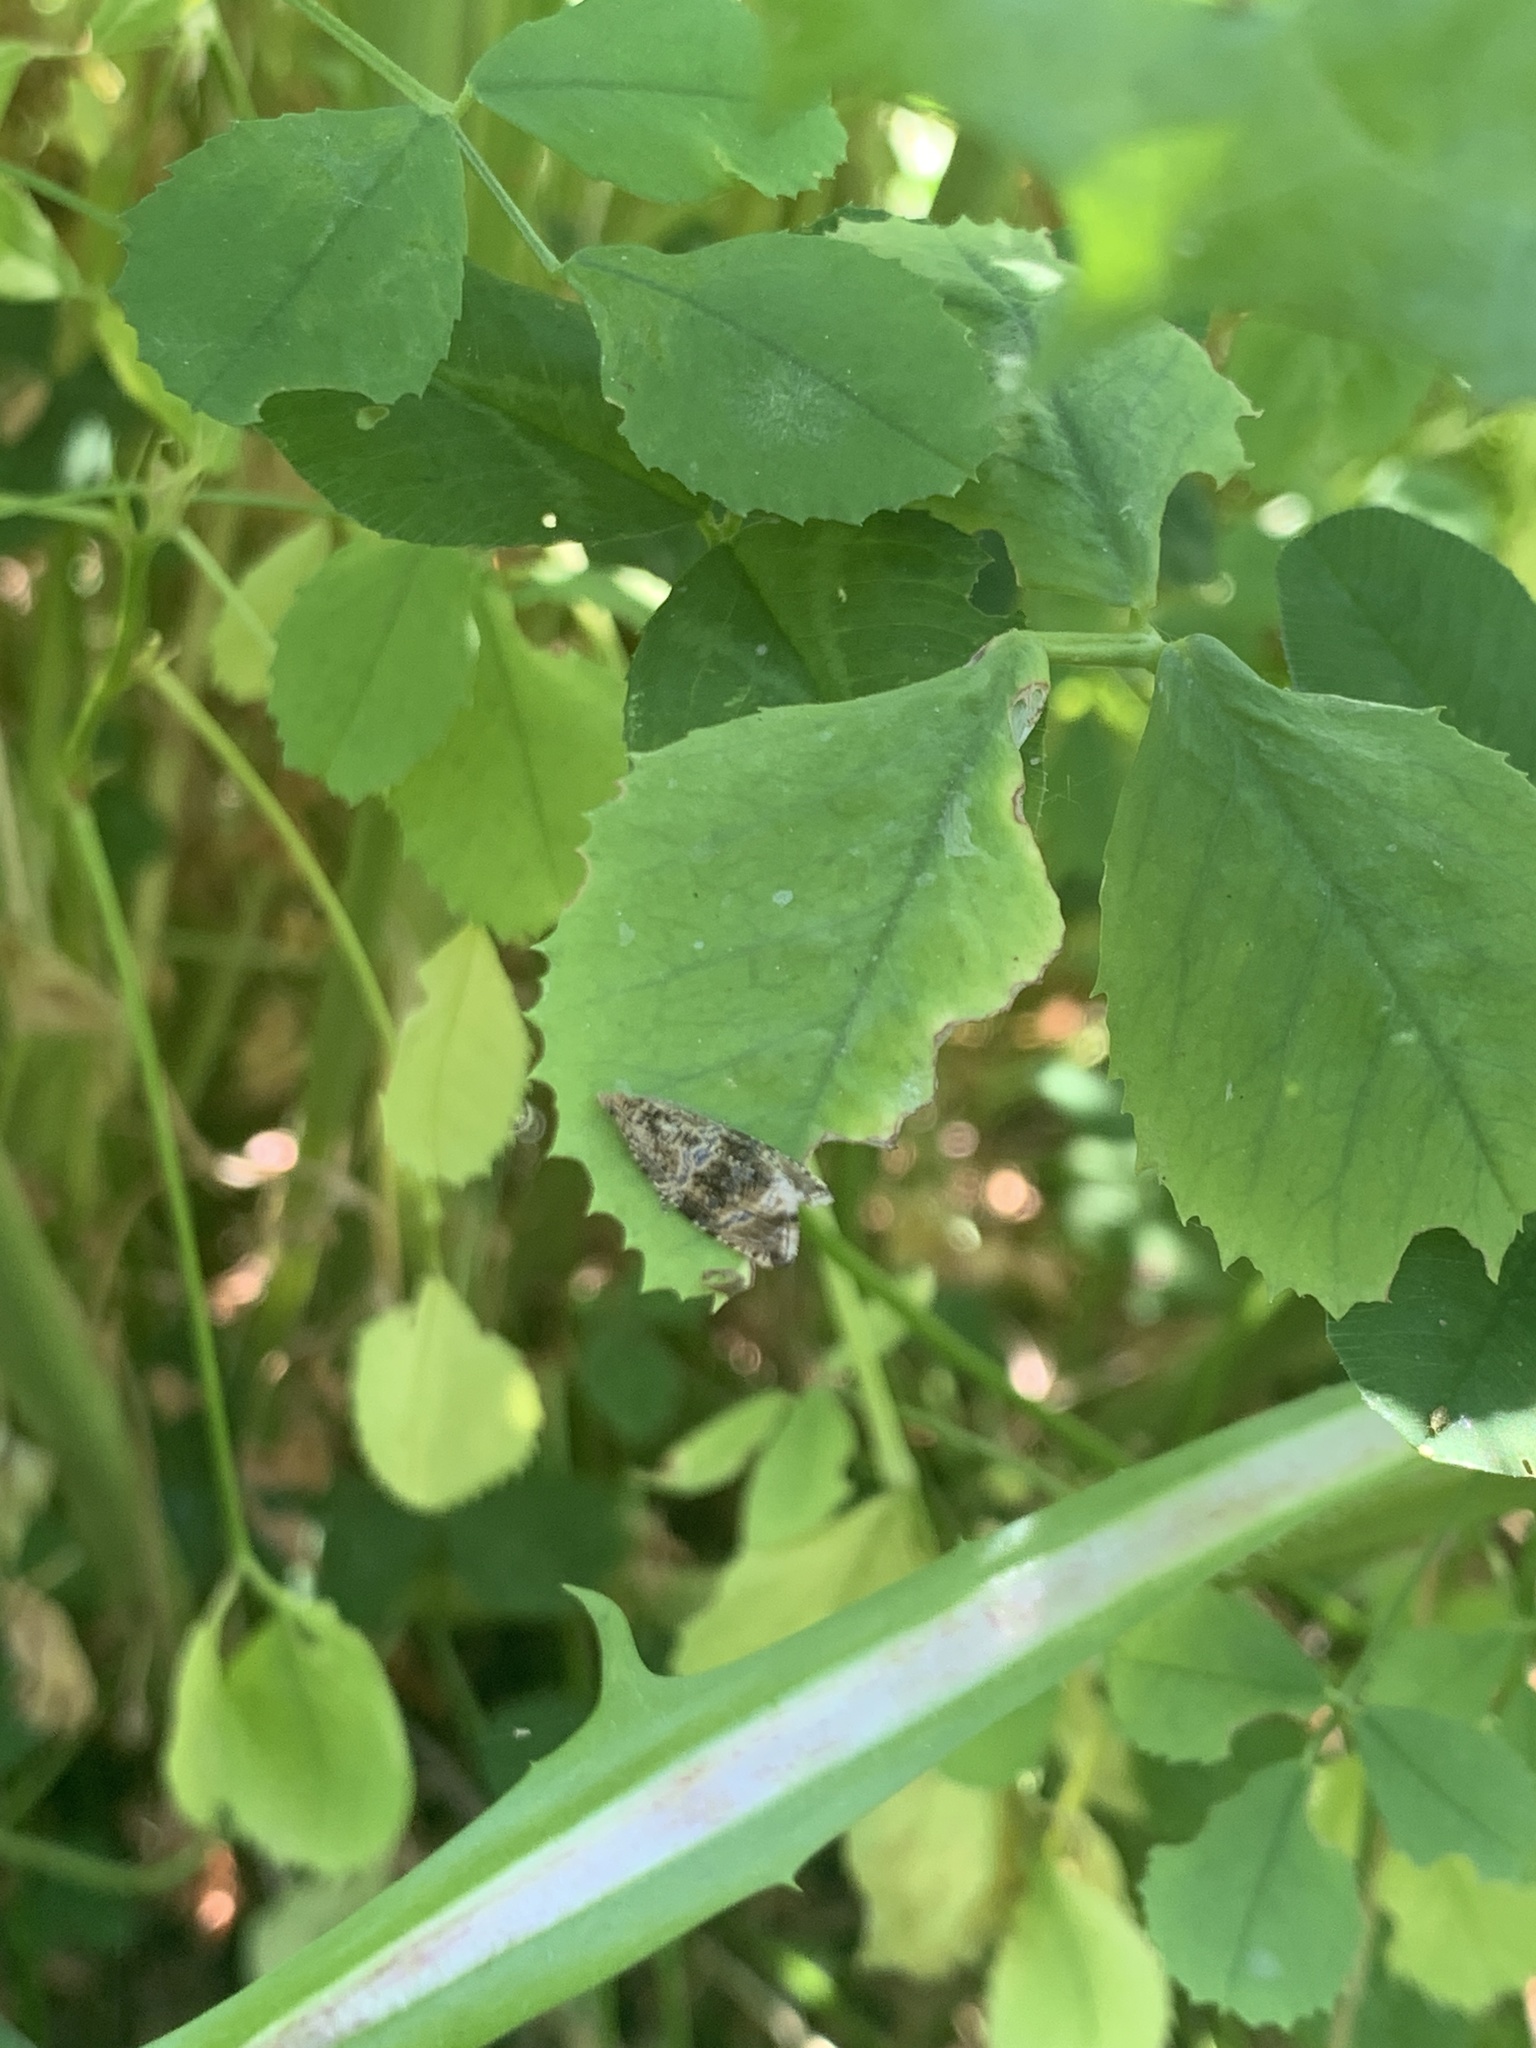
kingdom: Animalia
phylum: Arthropoda
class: Insecta
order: Lepidoptera
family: Tortricidae
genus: Syricoris
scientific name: Syricoris lacunana
